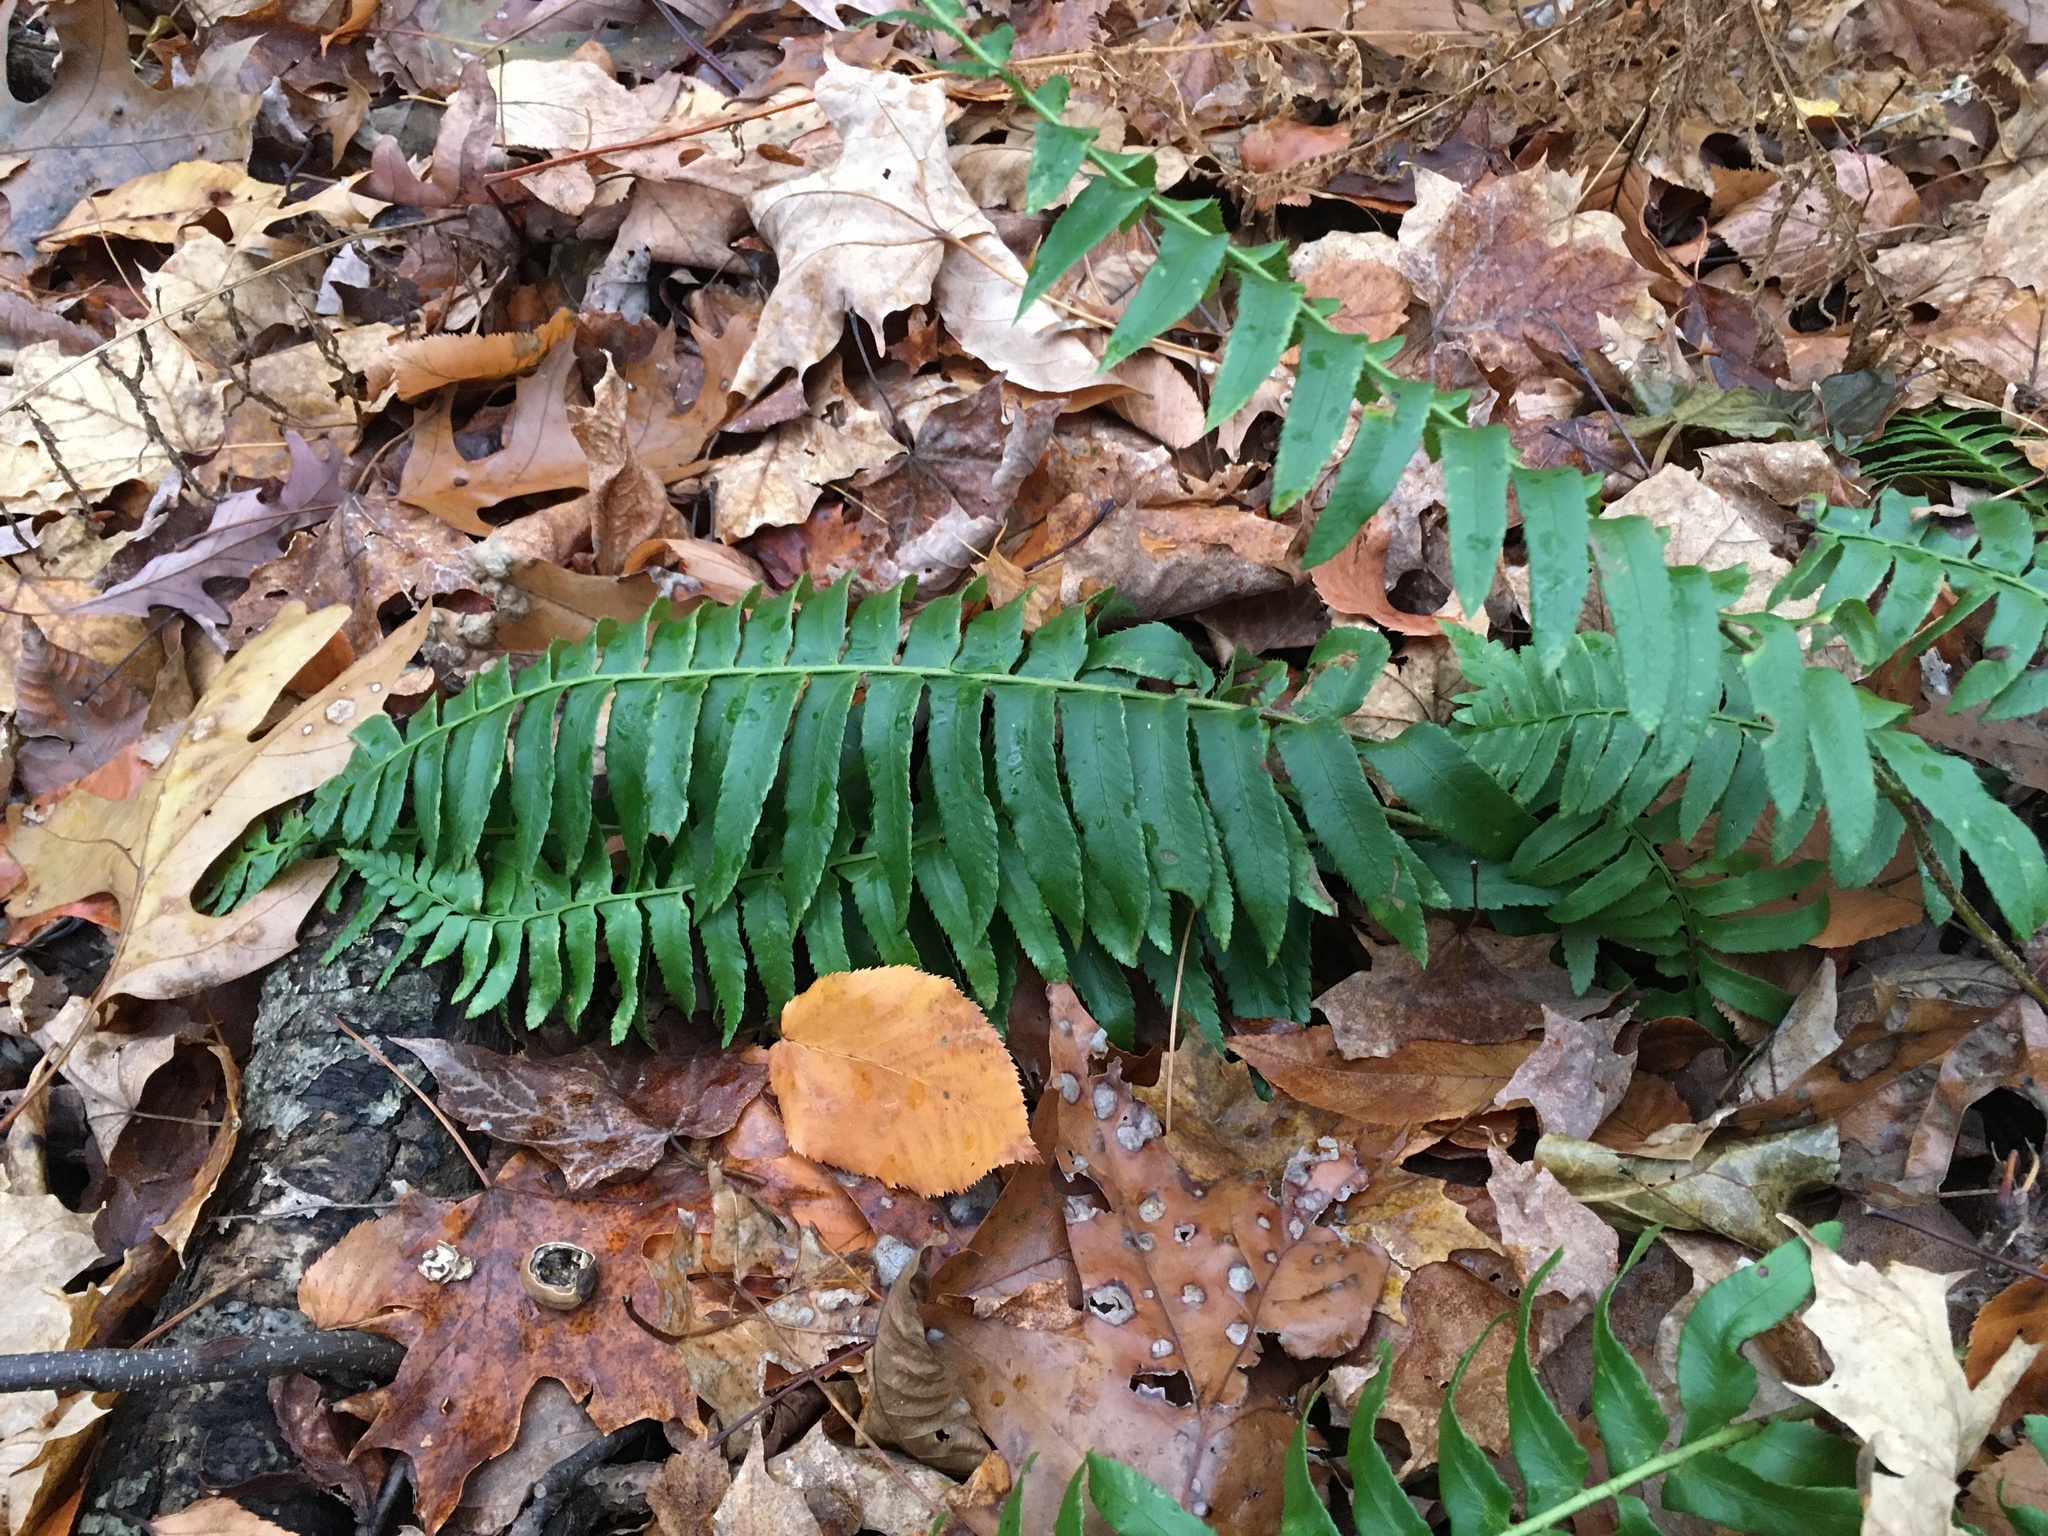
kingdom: Plantae
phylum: Tracheophyta
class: Polypodiopsida
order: Polypodiales
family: Dryopteridaceae
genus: Polystichum
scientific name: Polystichum acrostichoides
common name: Christmas fern
